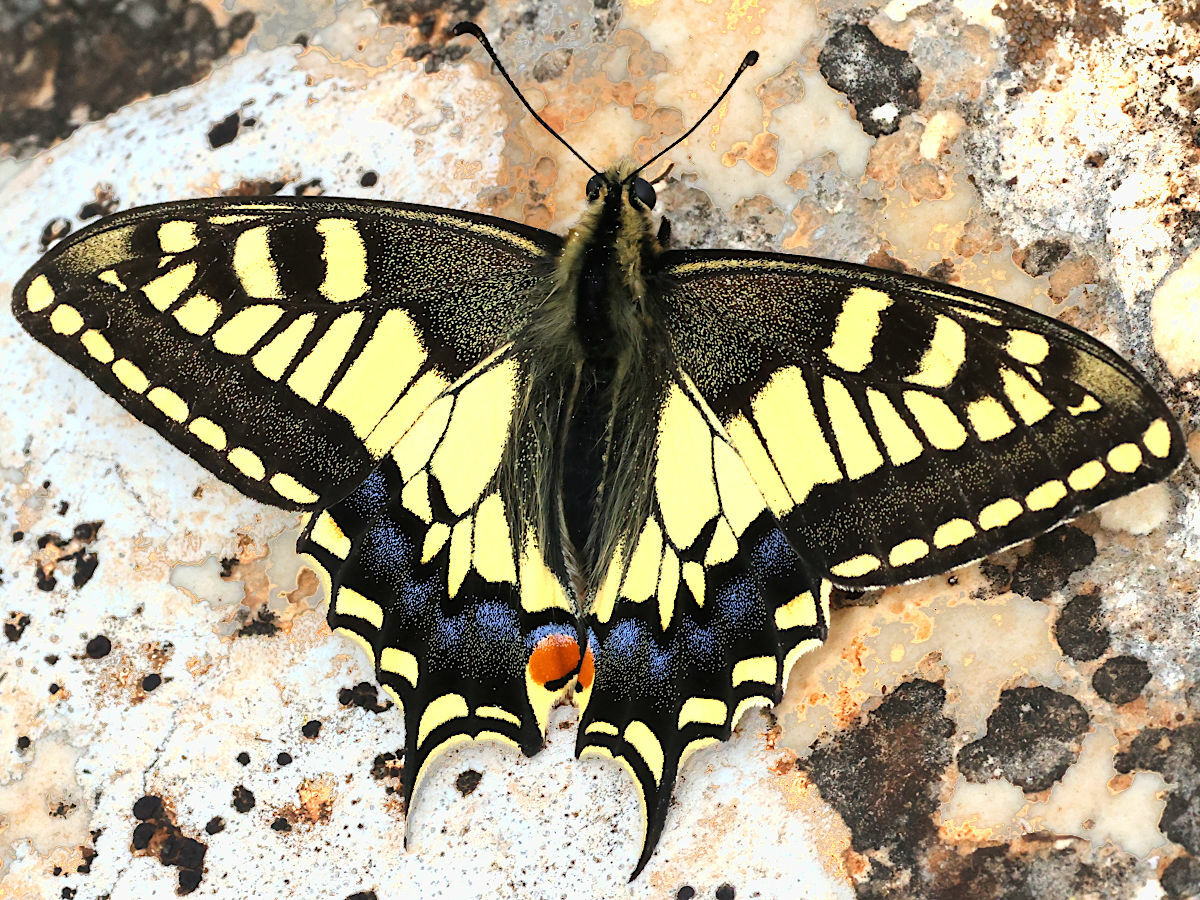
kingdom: Animalia
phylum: Arthropoda
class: Insecta
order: Lepidoptera
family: Papilionidae
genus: Papilio
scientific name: Papilio machaon
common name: Swallowtail
